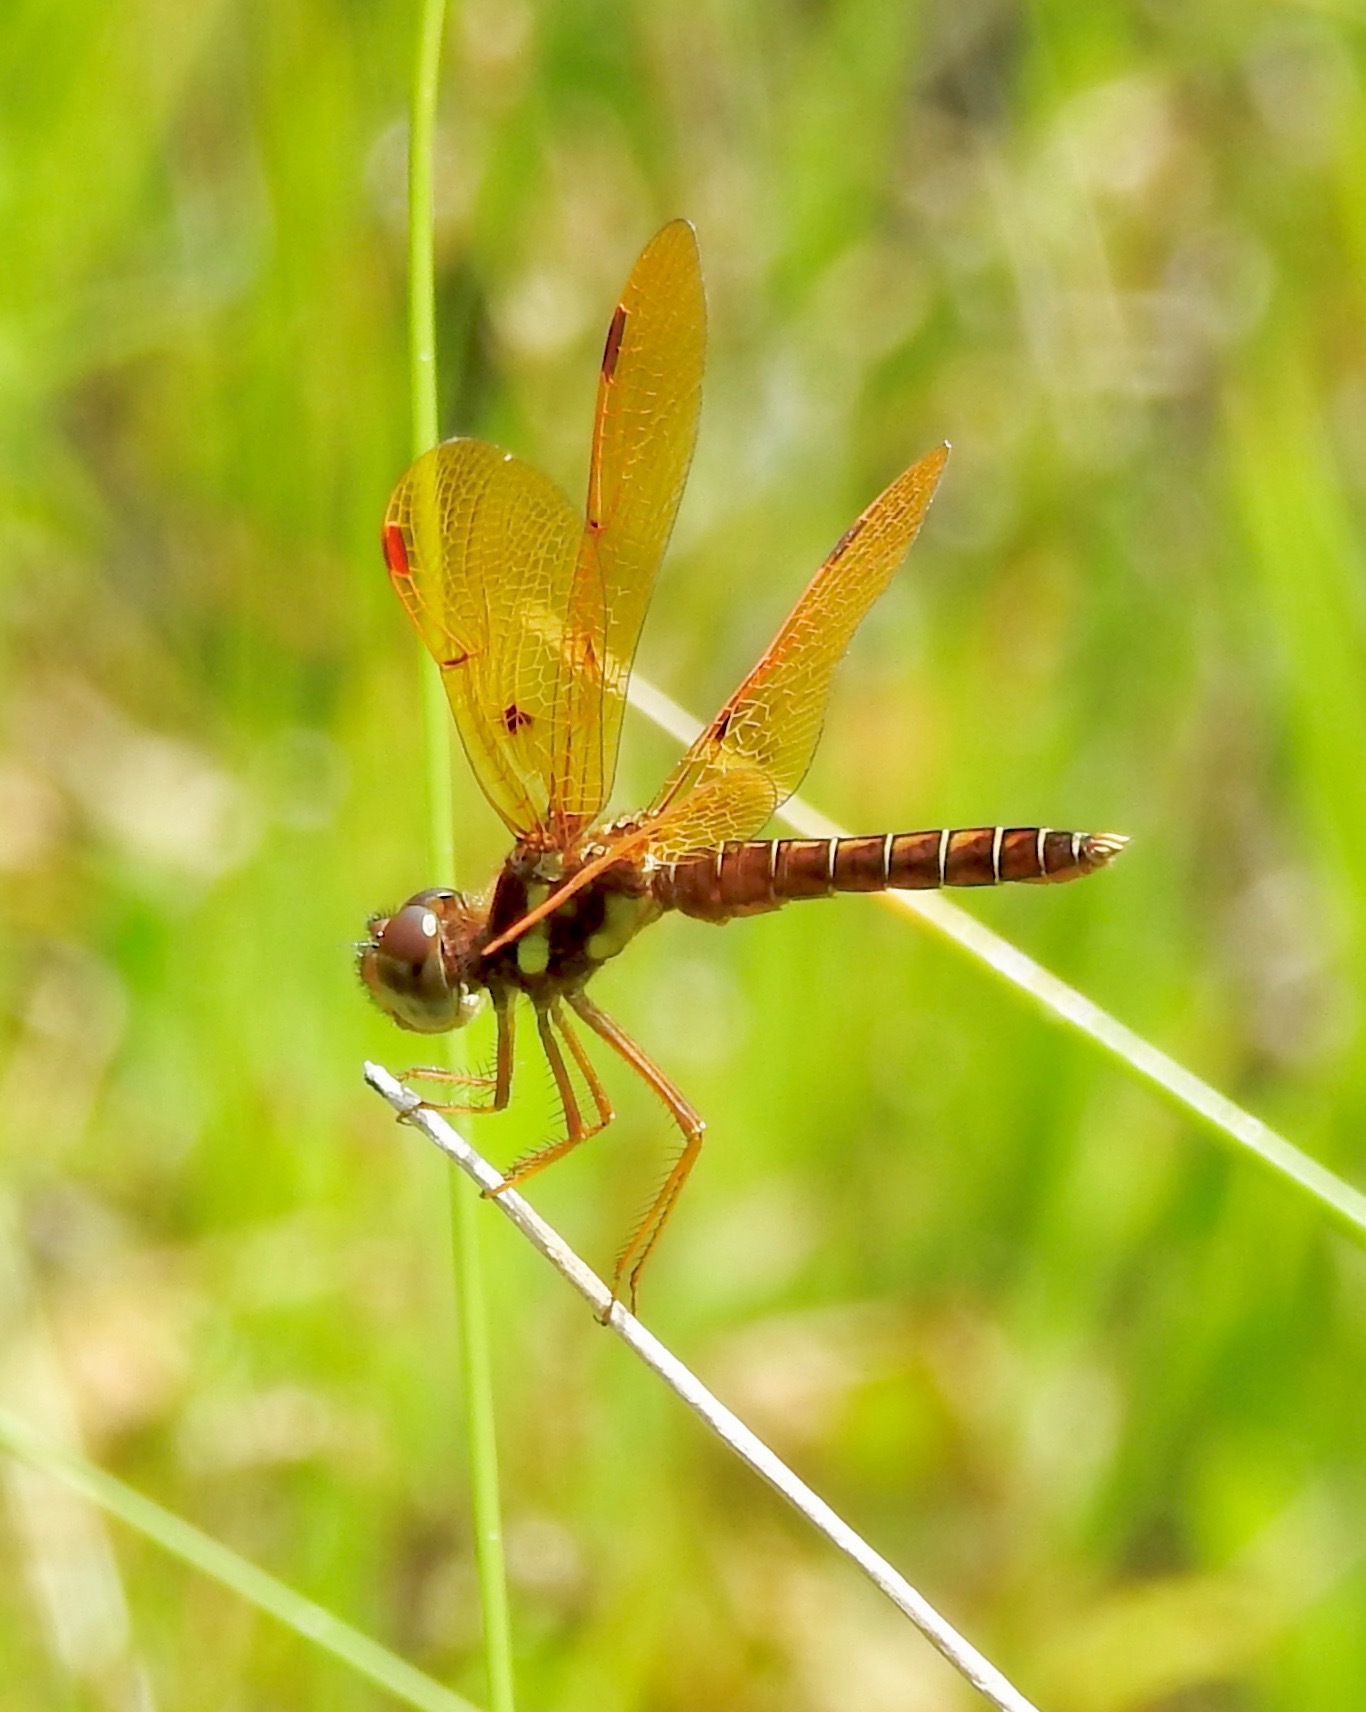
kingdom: Animalia
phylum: Arthropoda
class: Insecta
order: Odonata
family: Libellulidae
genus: Perithemis
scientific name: Perithemis tenera
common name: Eastern amberwing
